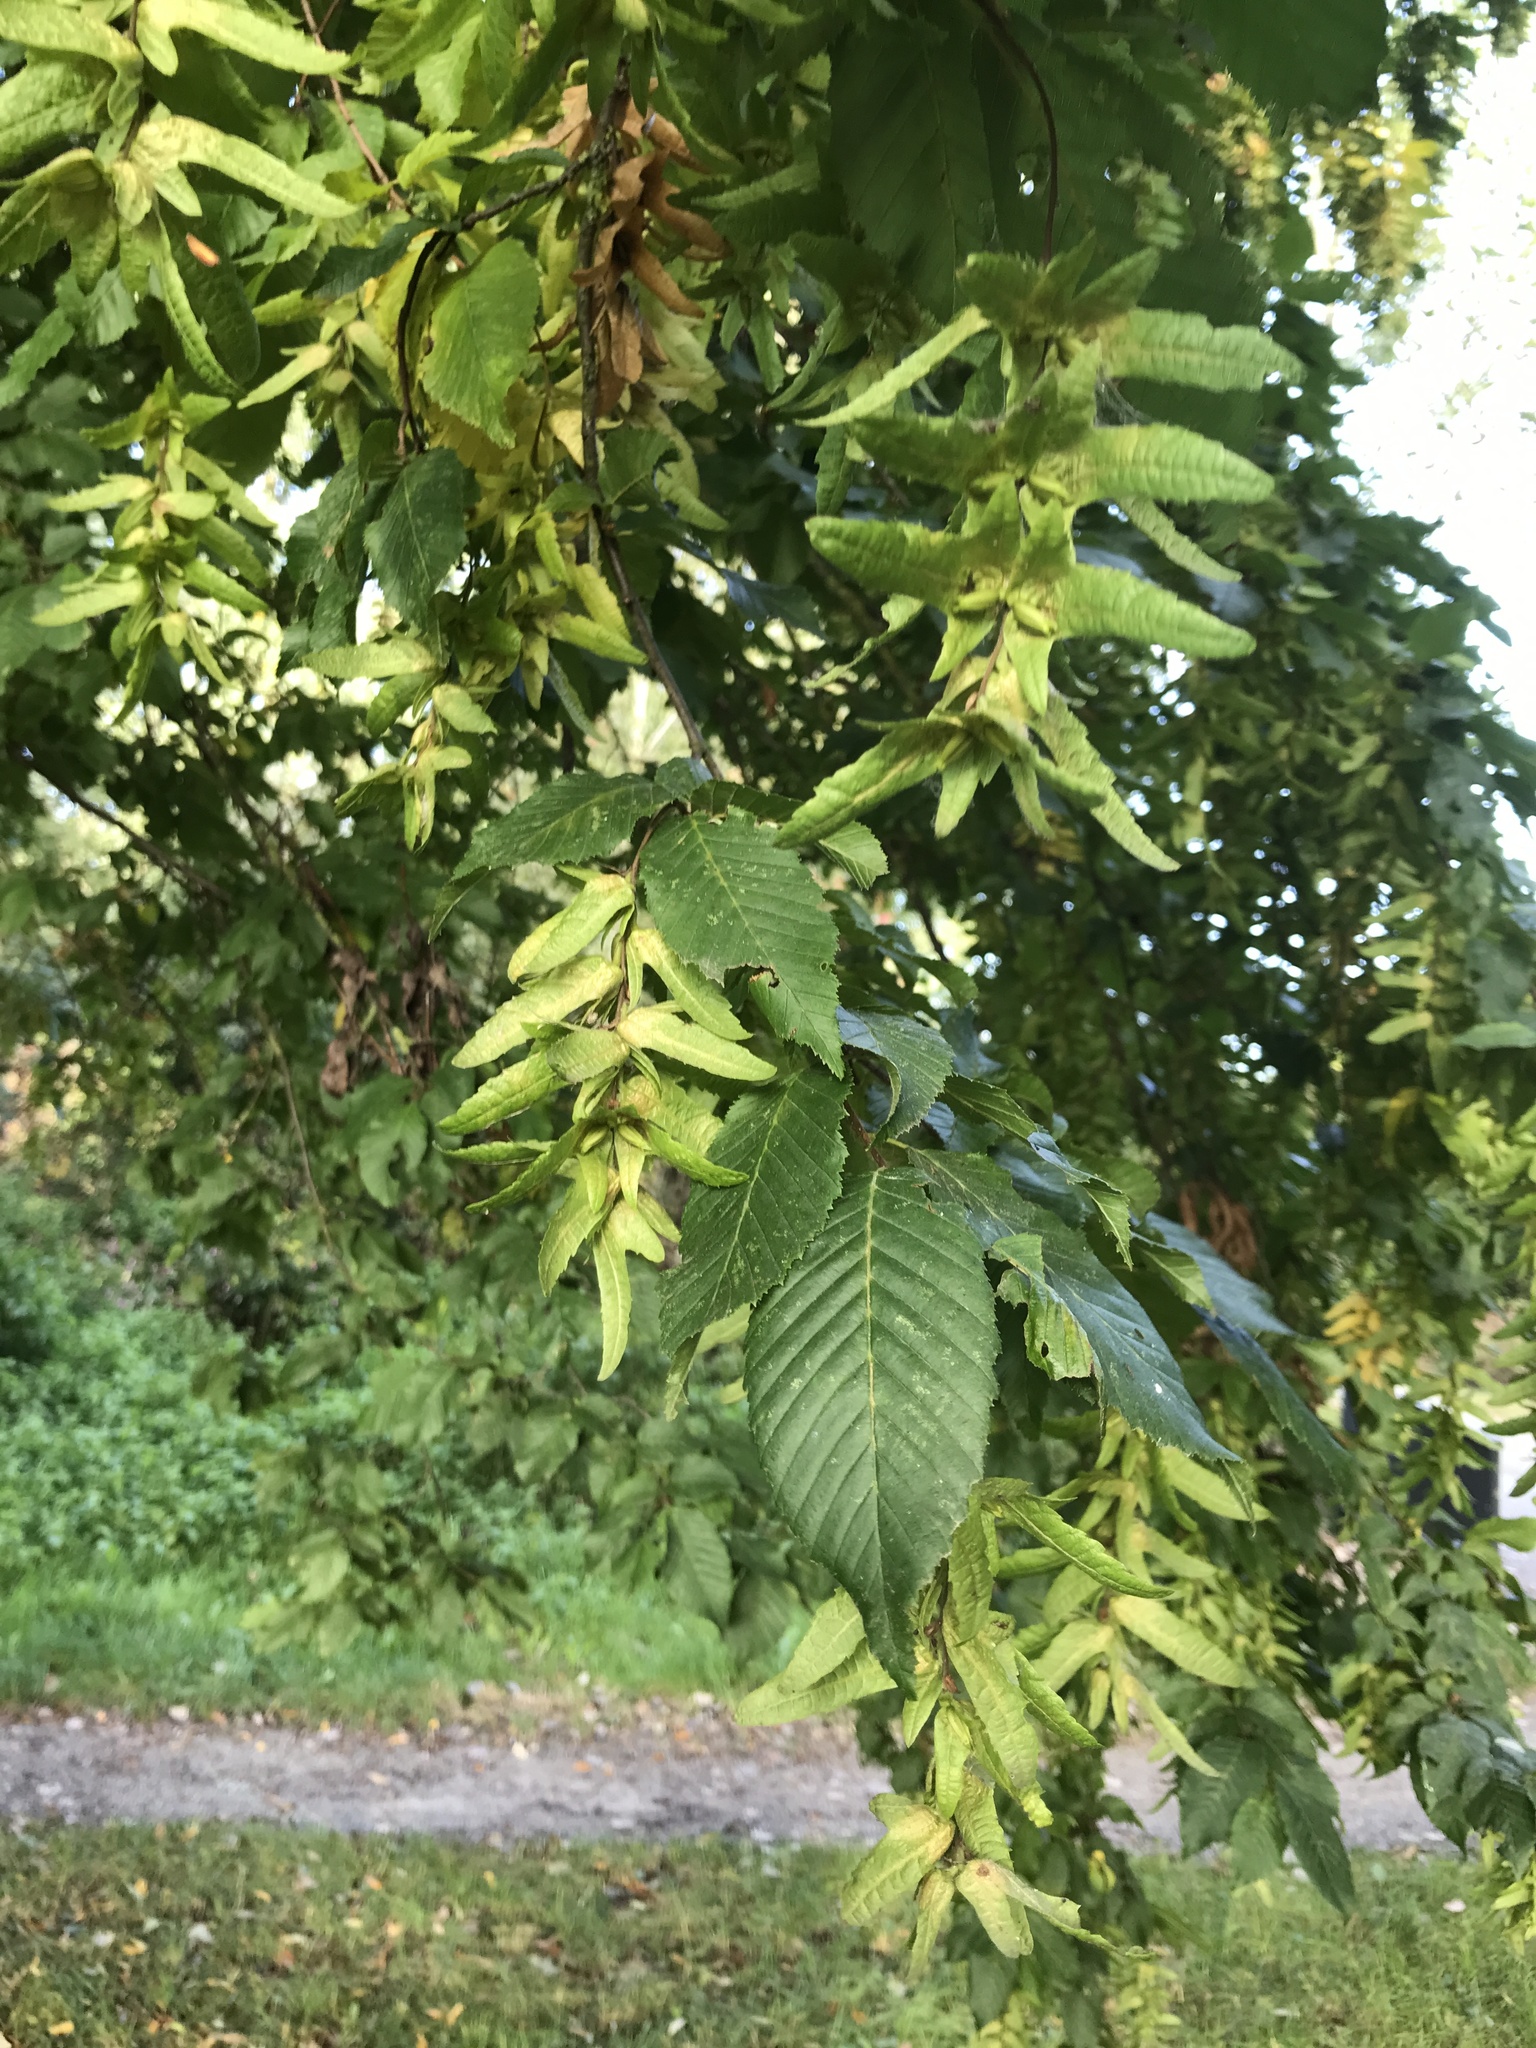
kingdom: Plantae
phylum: Tracheophyta
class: Magnoliopsida
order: Fagales
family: Betulaceae
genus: Carpinus
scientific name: Carpinus betulus
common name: Hornbeam
